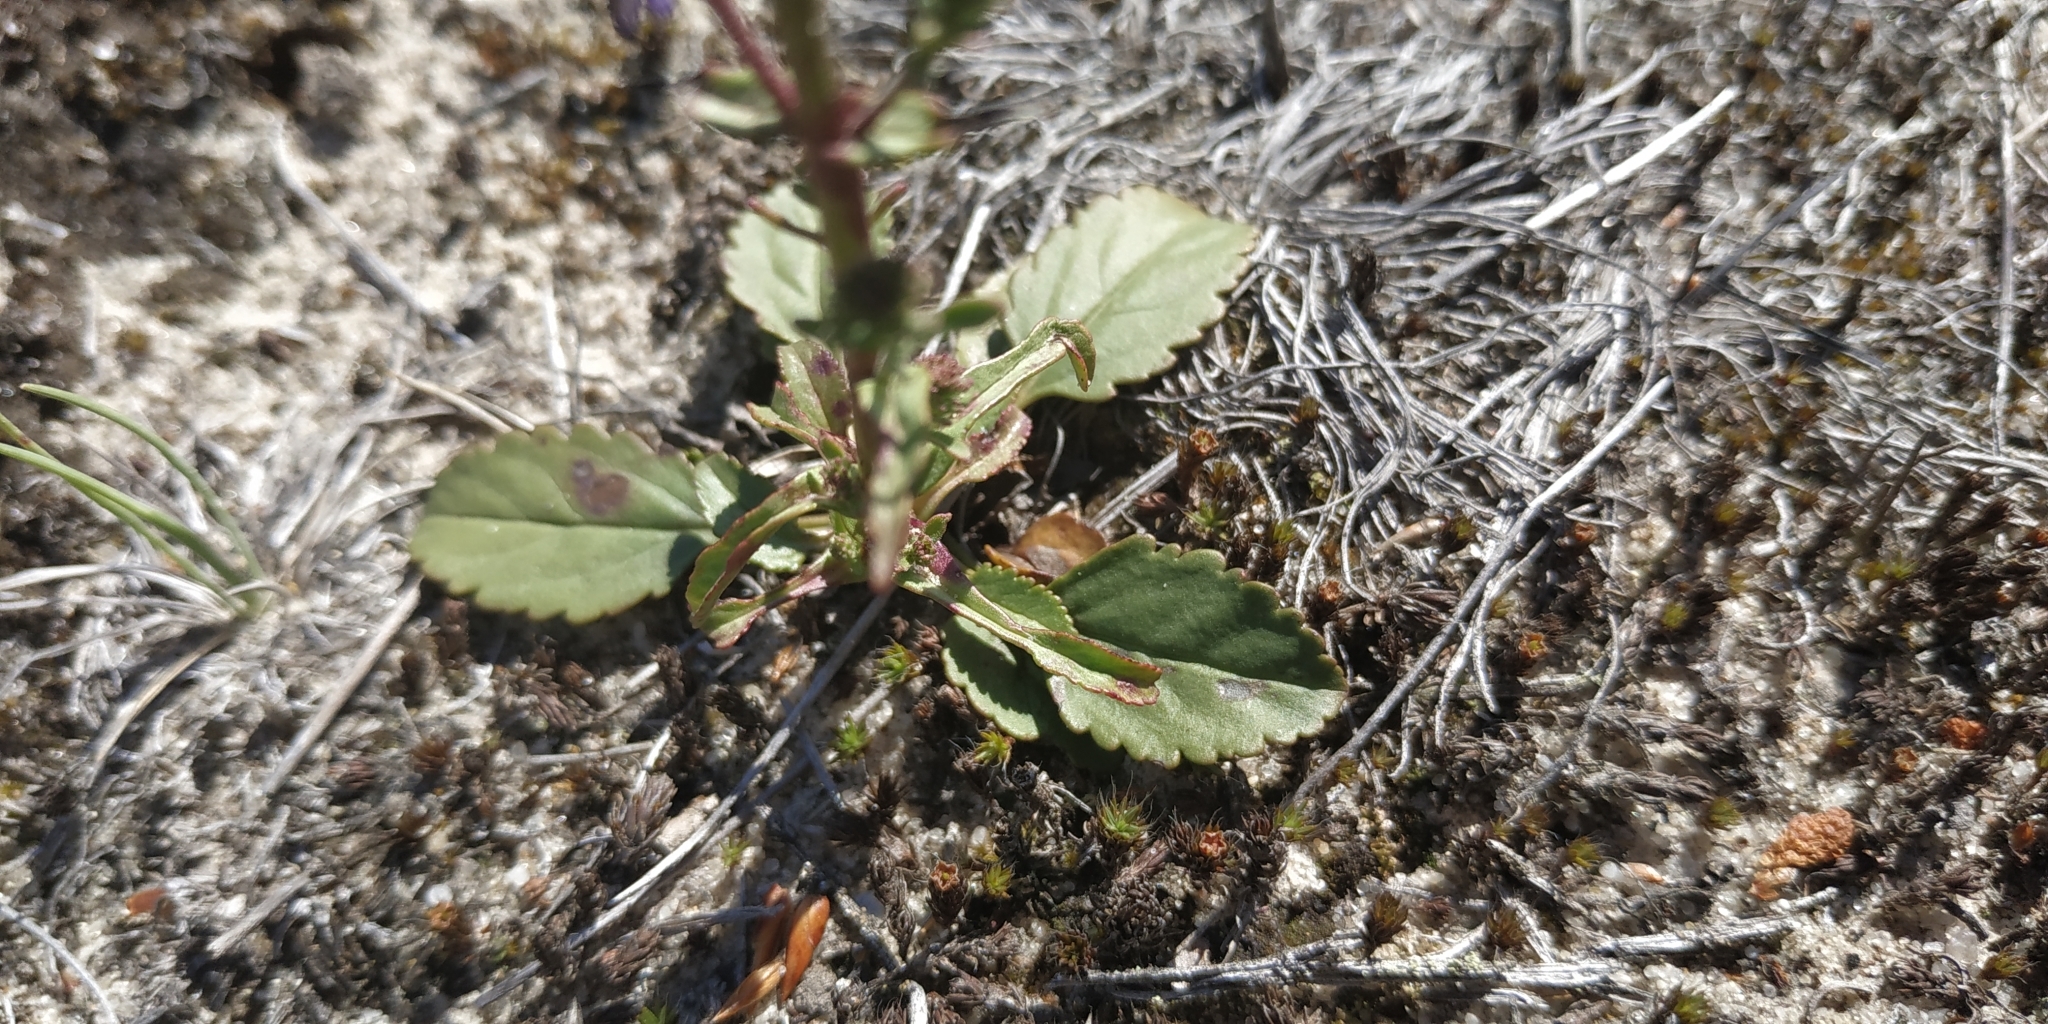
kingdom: Plantae
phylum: Tracheophyta
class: Magnoliopsida
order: Lamiales
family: Plantaginaceae
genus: Veronica
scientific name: Veronica spicata
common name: Spiked speedwell
